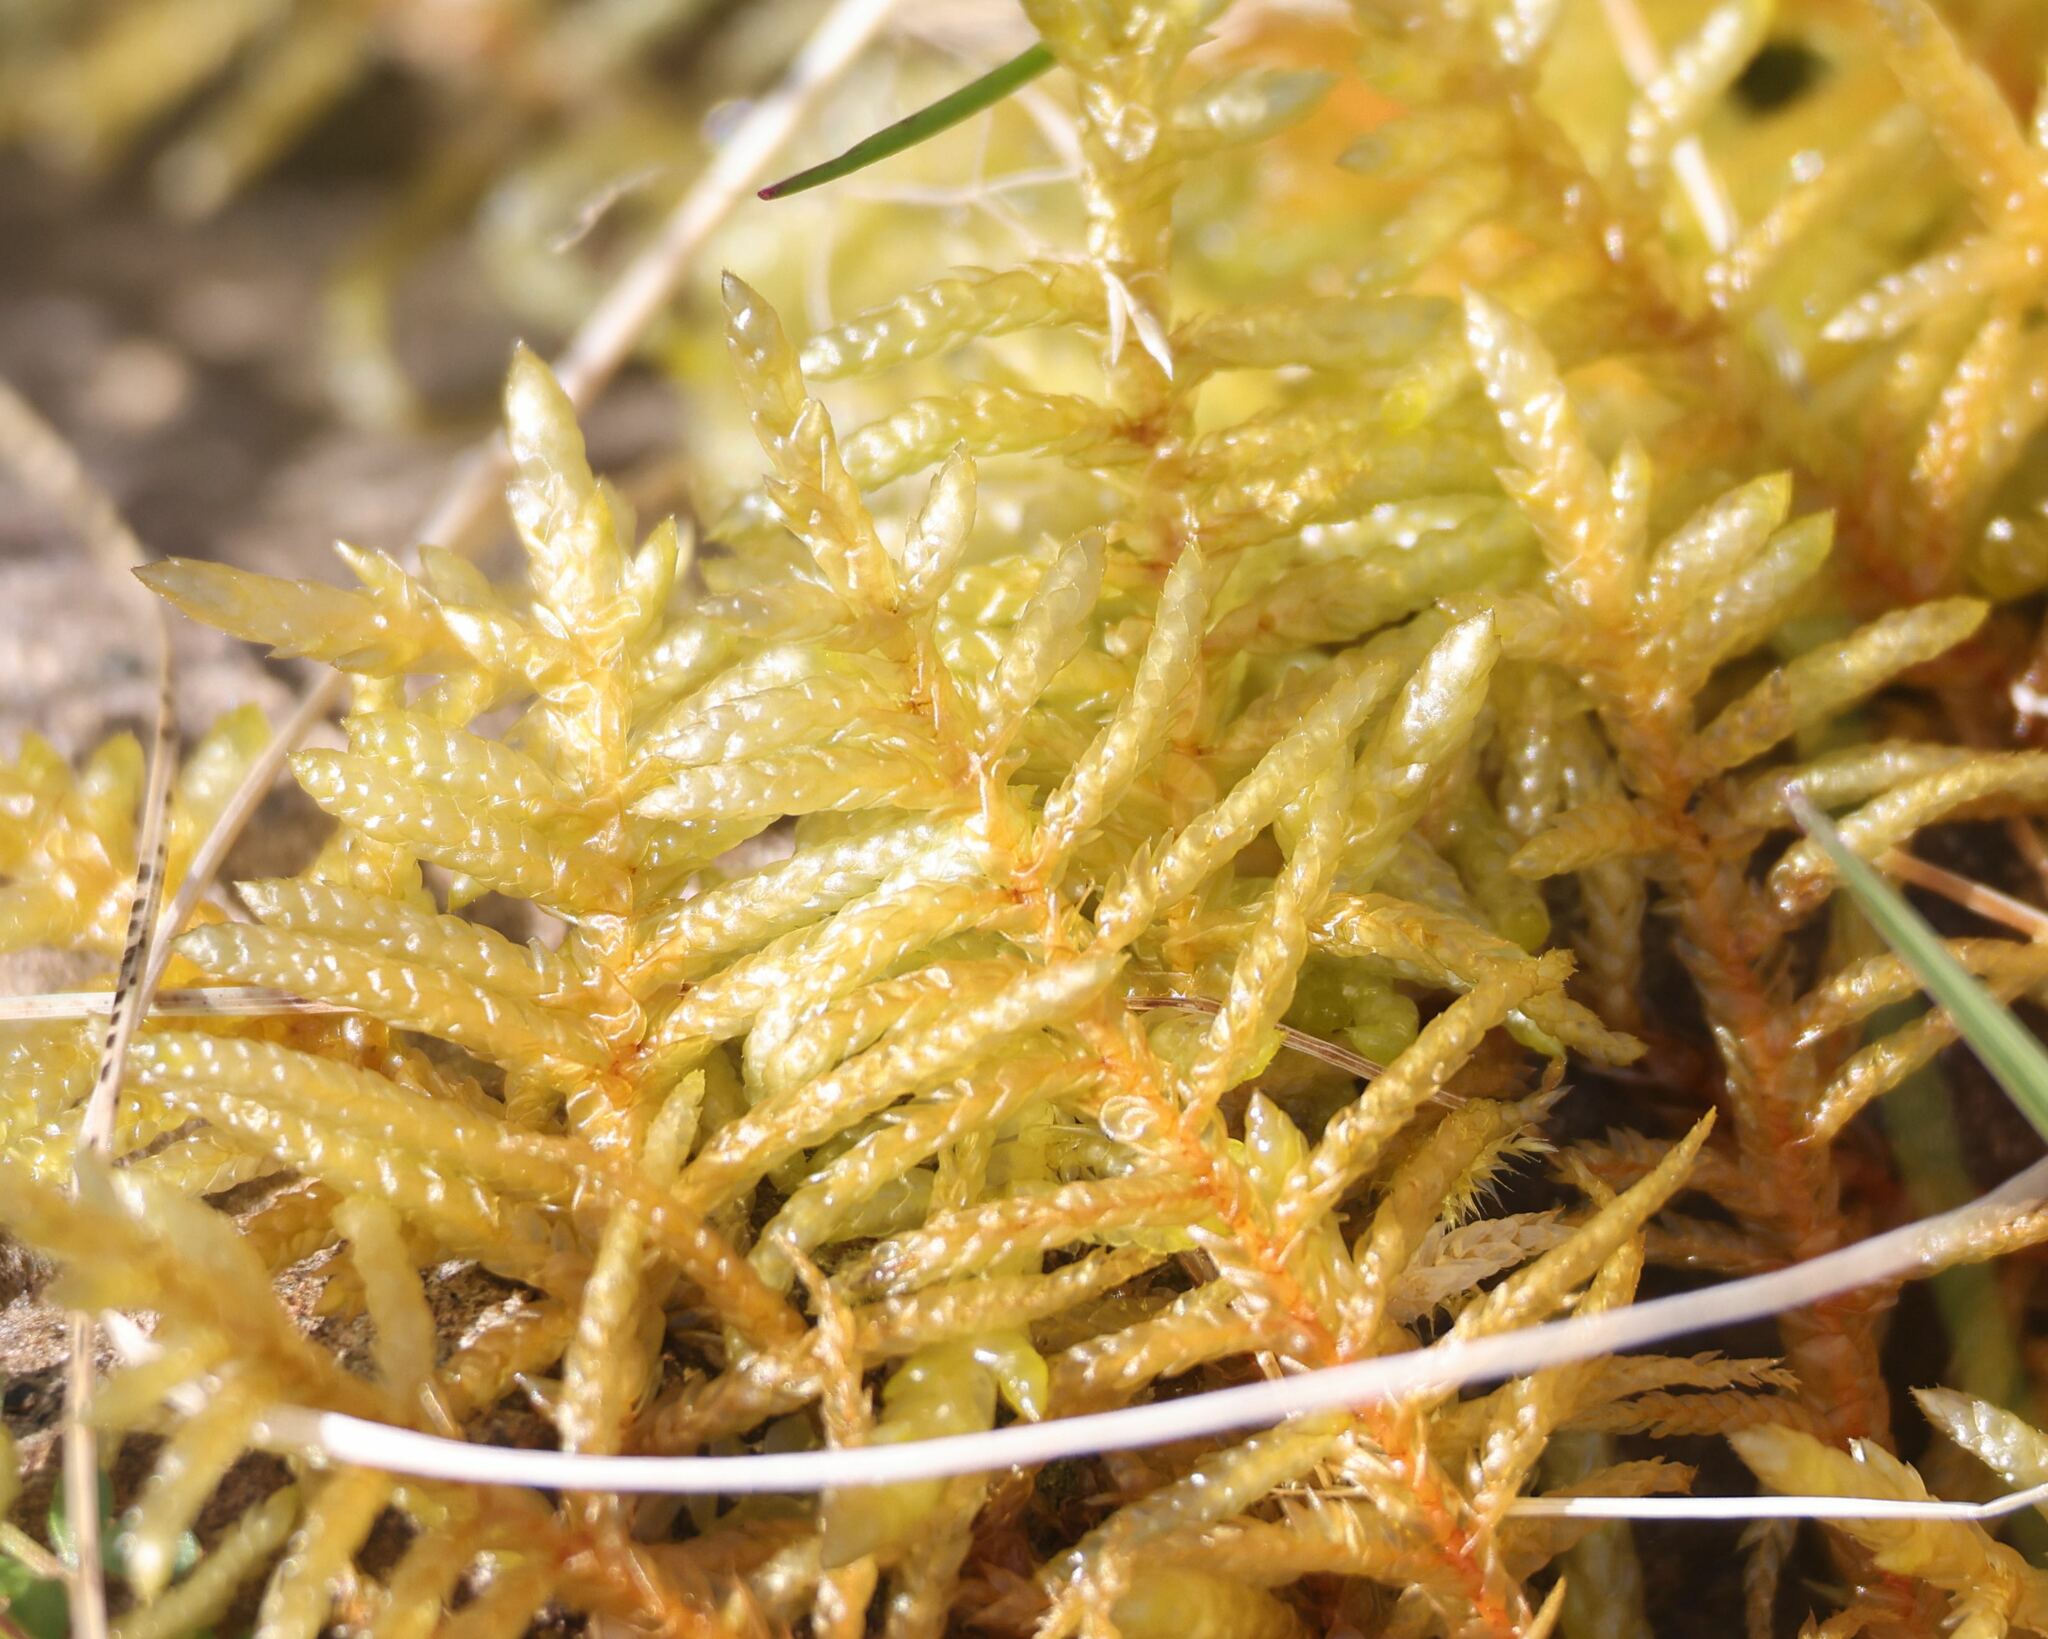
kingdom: Plantae
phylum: Bryophyta
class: Bryopsida
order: Hypnales
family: Brachytheciaceae
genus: Pseudoscleropodium
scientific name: Pseudoscleropodium purum
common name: Neat feather-moss
